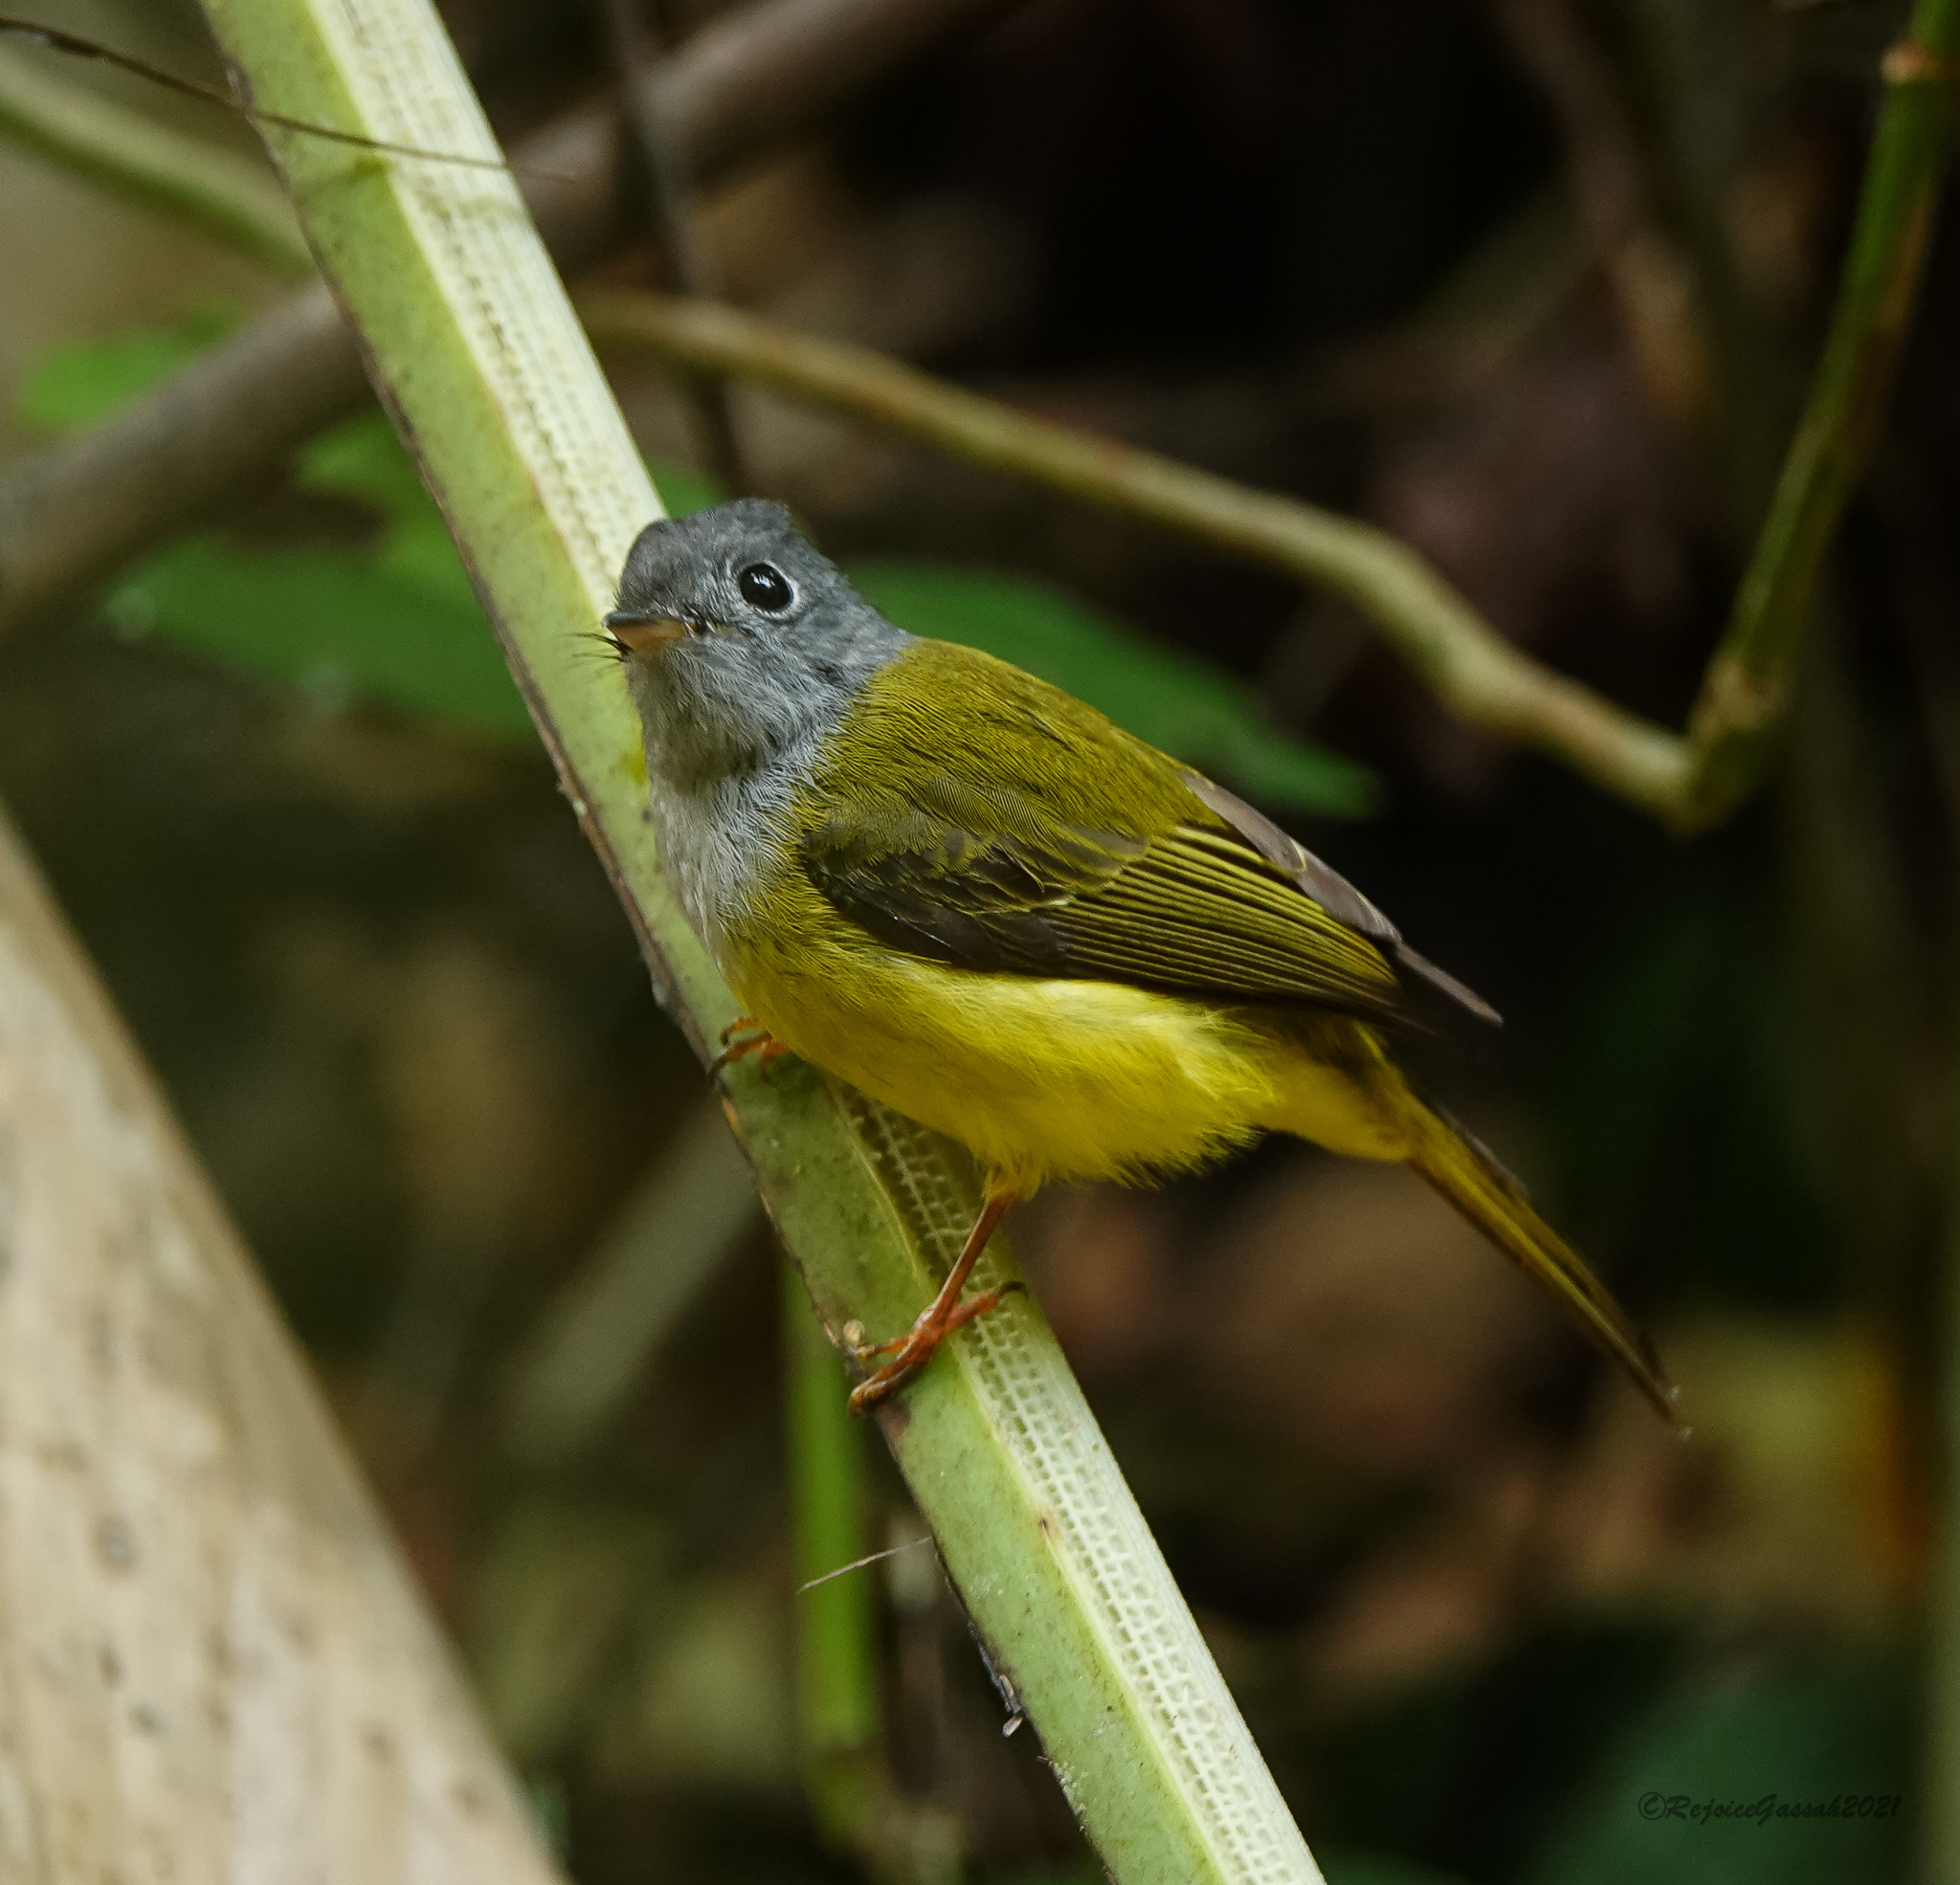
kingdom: Animalia
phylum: Chordata
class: Aves
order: Passeriformes
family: Stenostiridae
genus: Culicicapa
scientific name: Culicicapa ceylonensis
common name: Grey-headed canary-flycatcher
